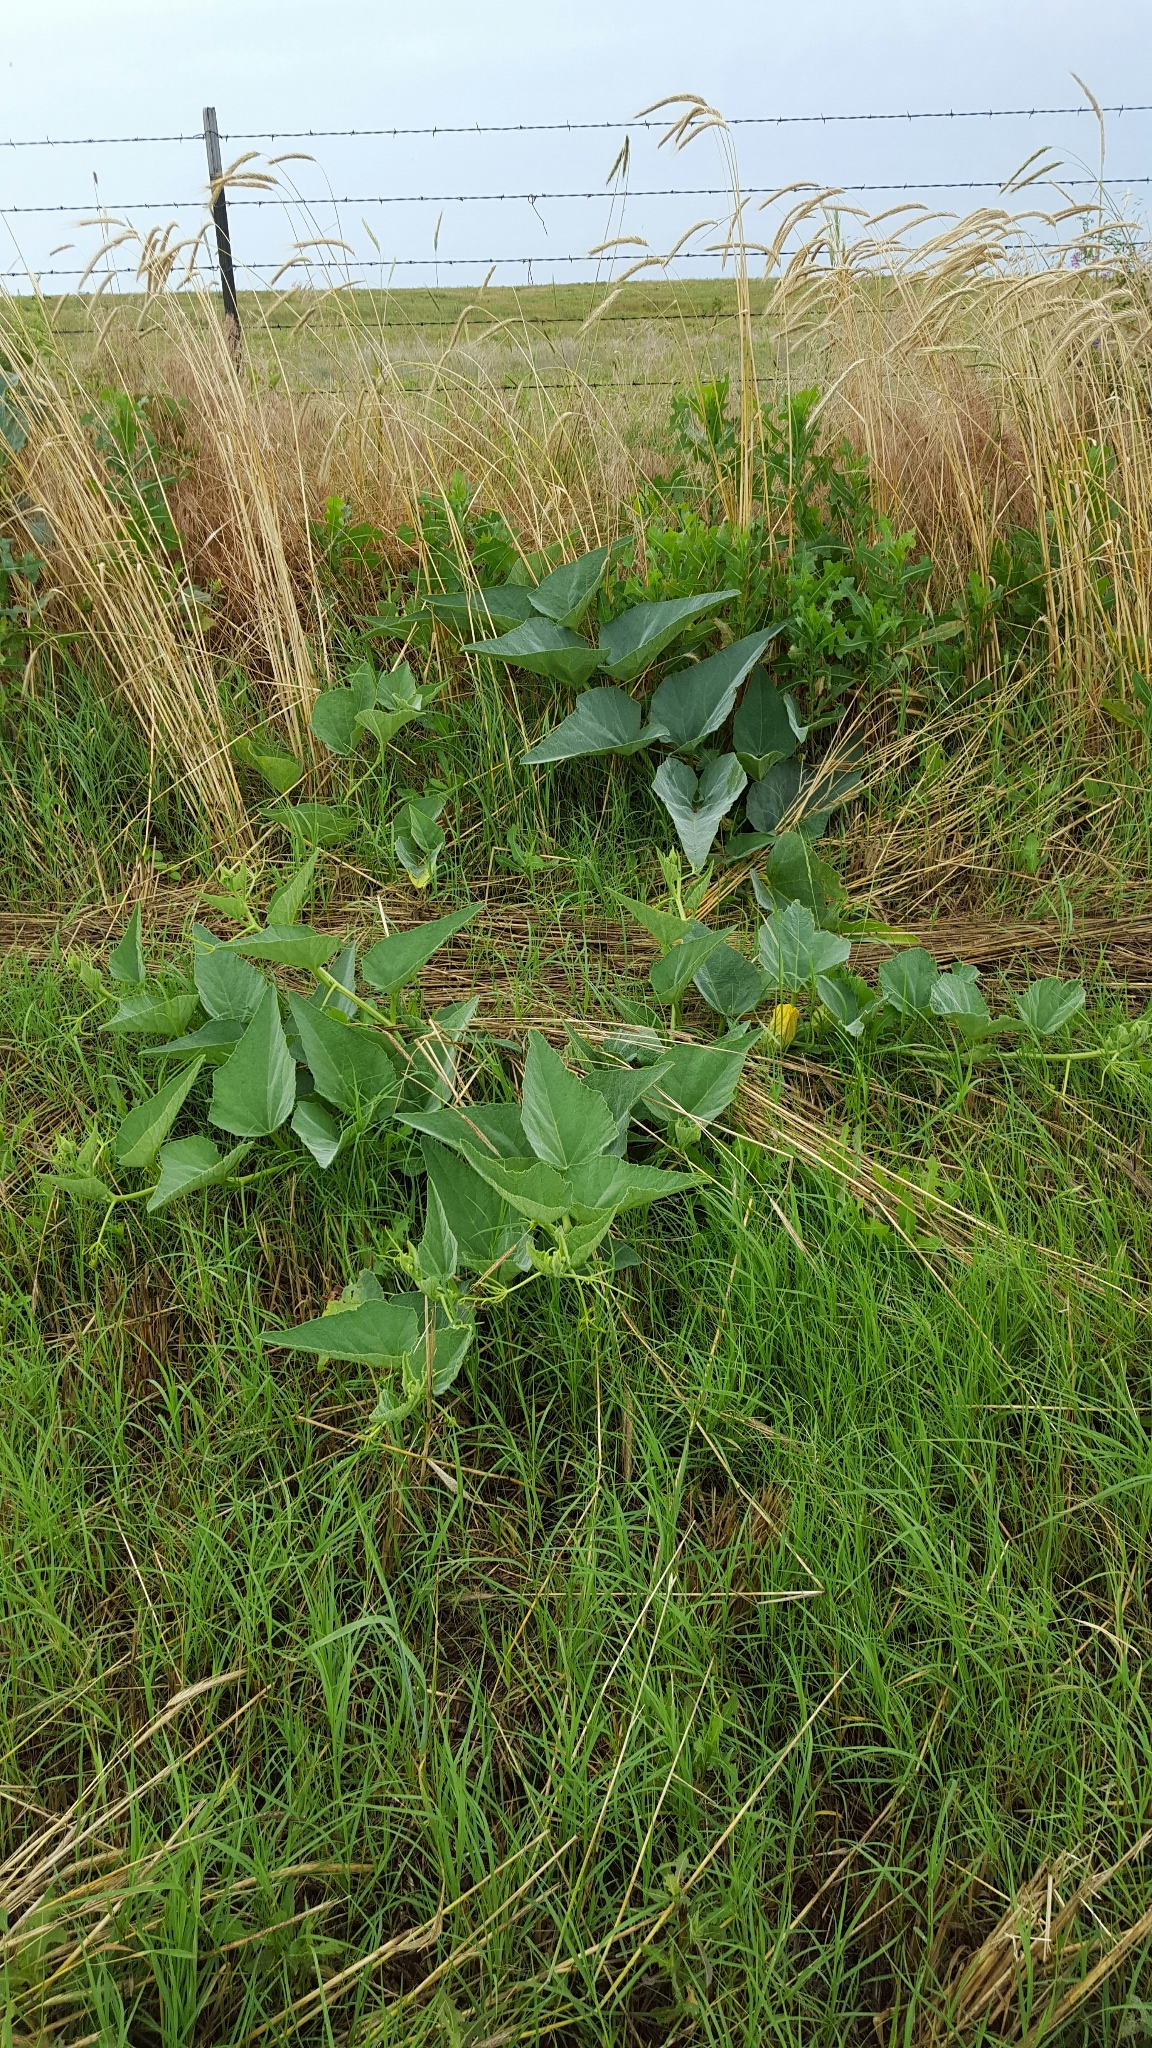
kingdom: Plantae
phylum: Tracheophyta
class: Magnoliopsida
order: Cucurbitales
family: Cucurbitaceae
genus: Cucurbita
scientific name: Cucurbita foetidissima
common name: Buffalo gourd
